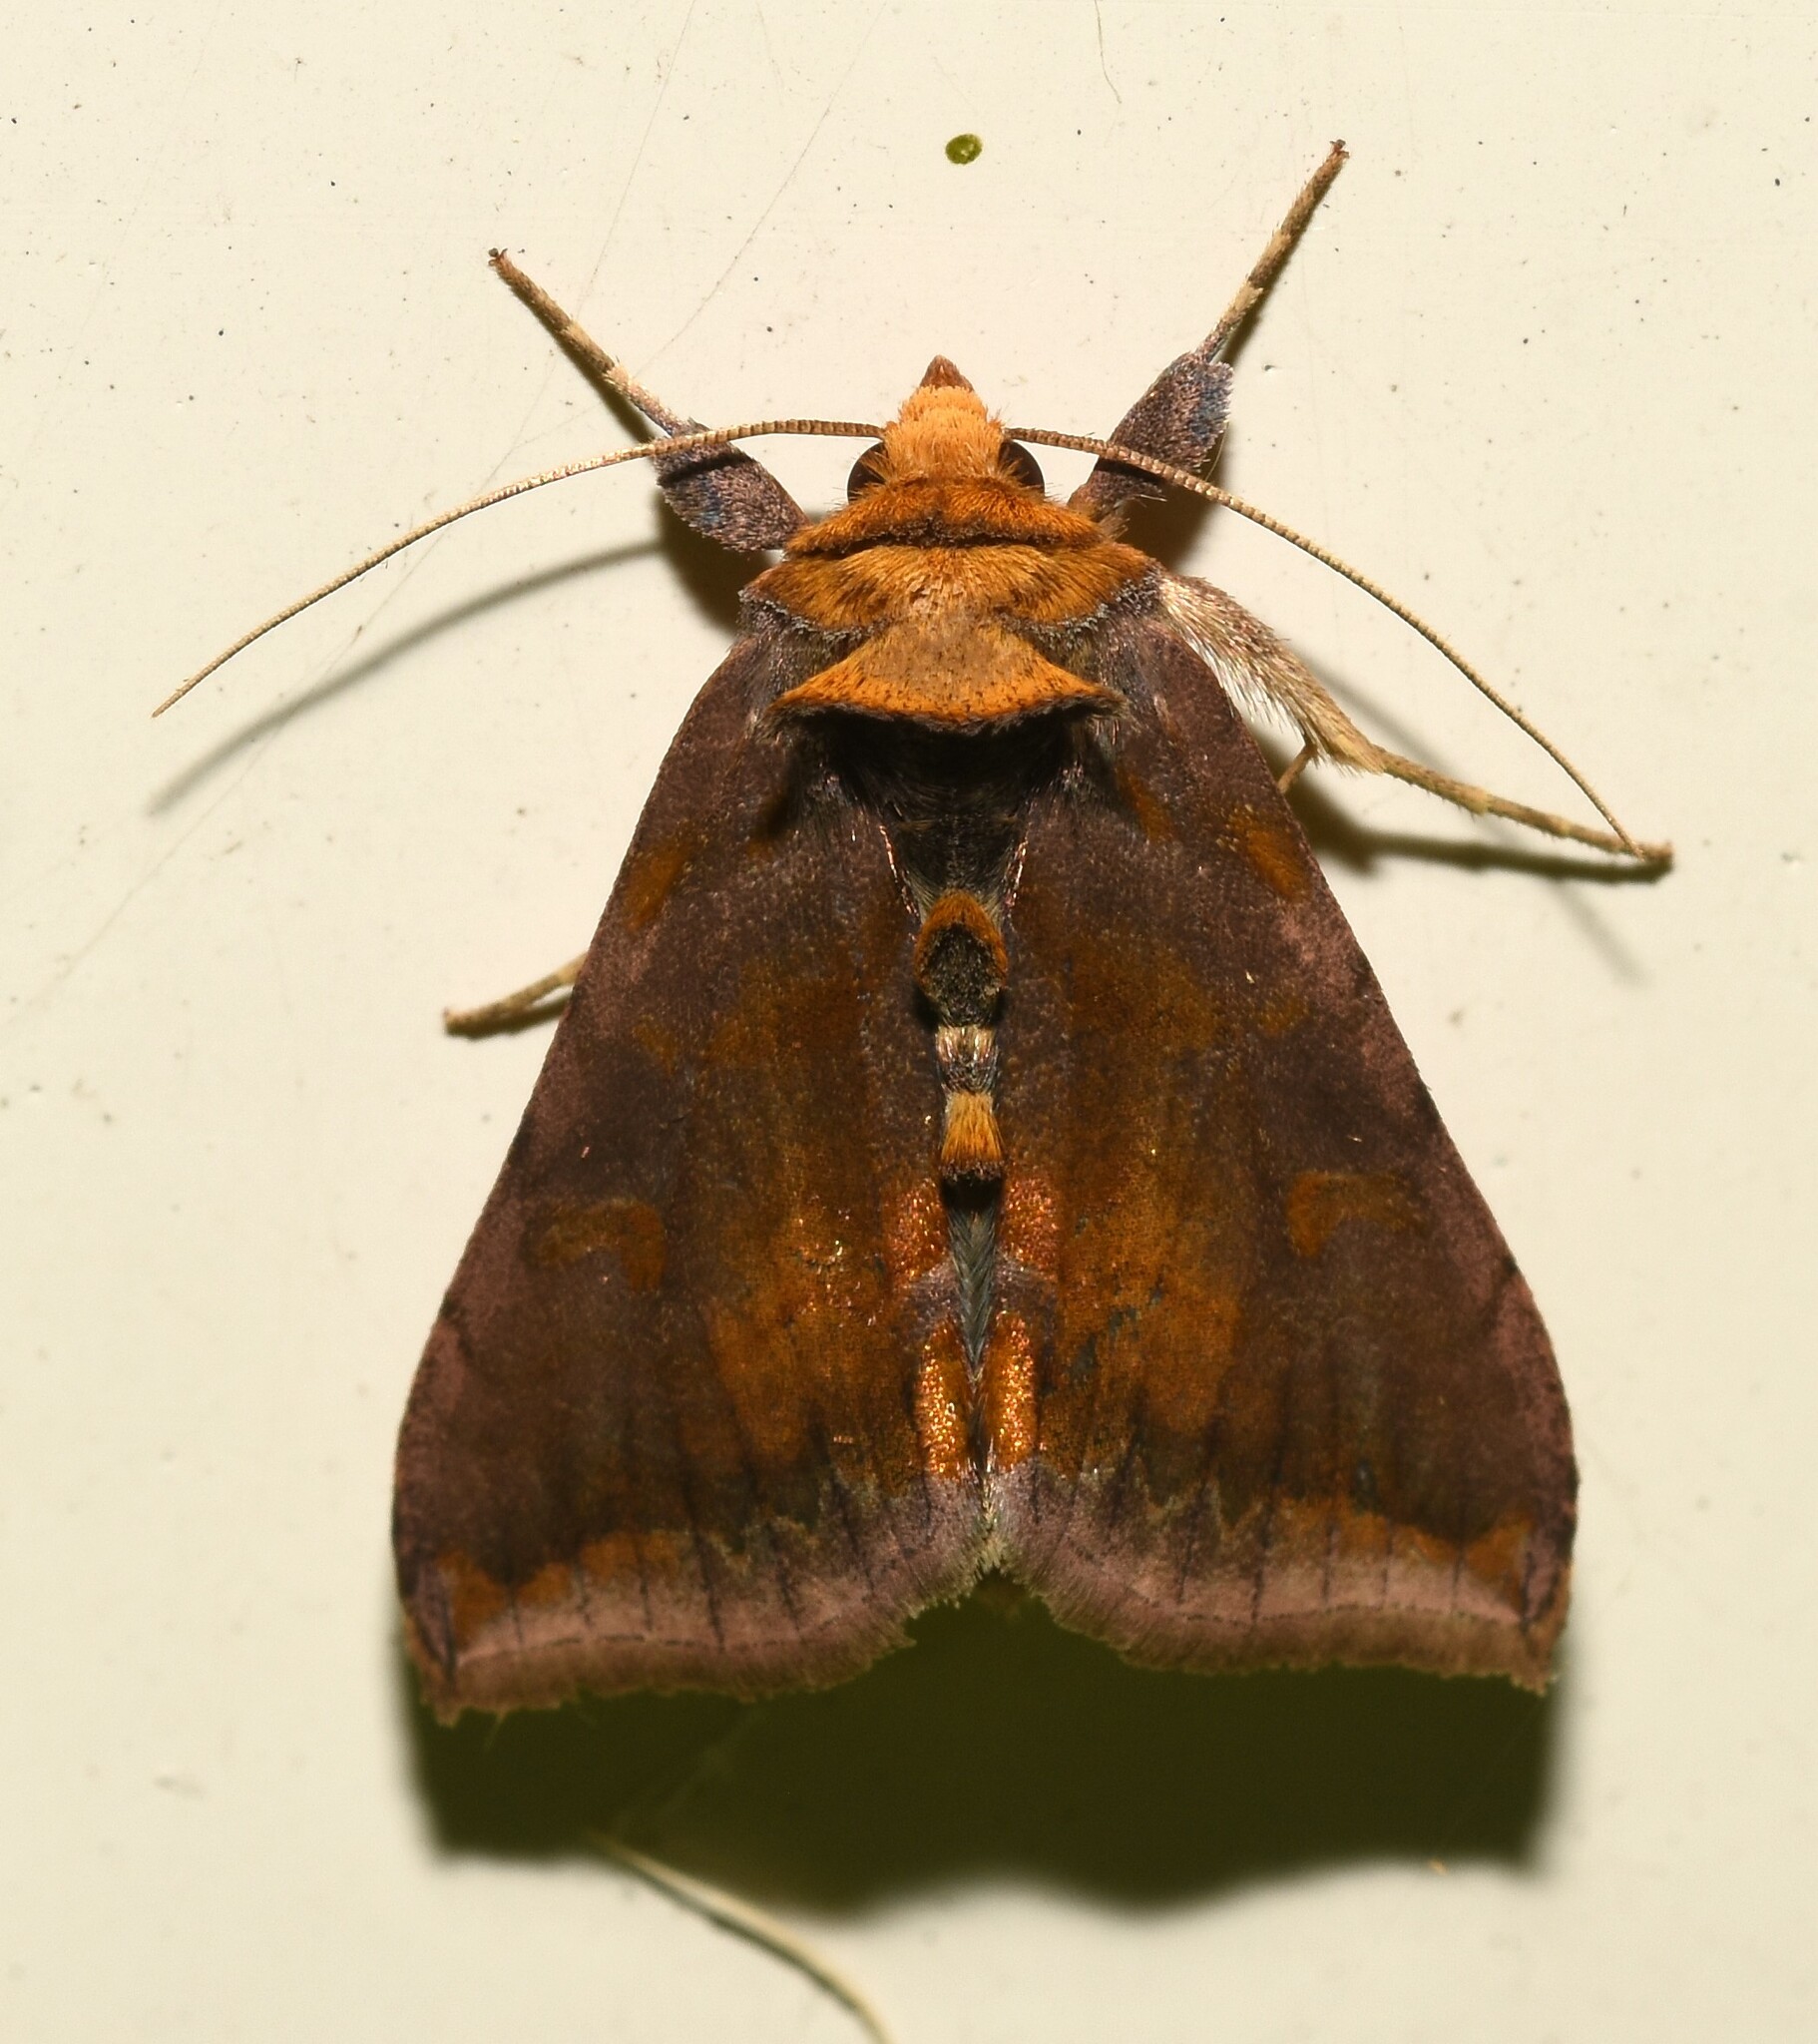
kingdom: Animalia
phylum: Arthropoda
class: Insecta
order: Lepidoptera
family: Noctuidae
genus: Allagrapha
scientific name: Allagrapha aerea
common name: Unspotted looper moth
